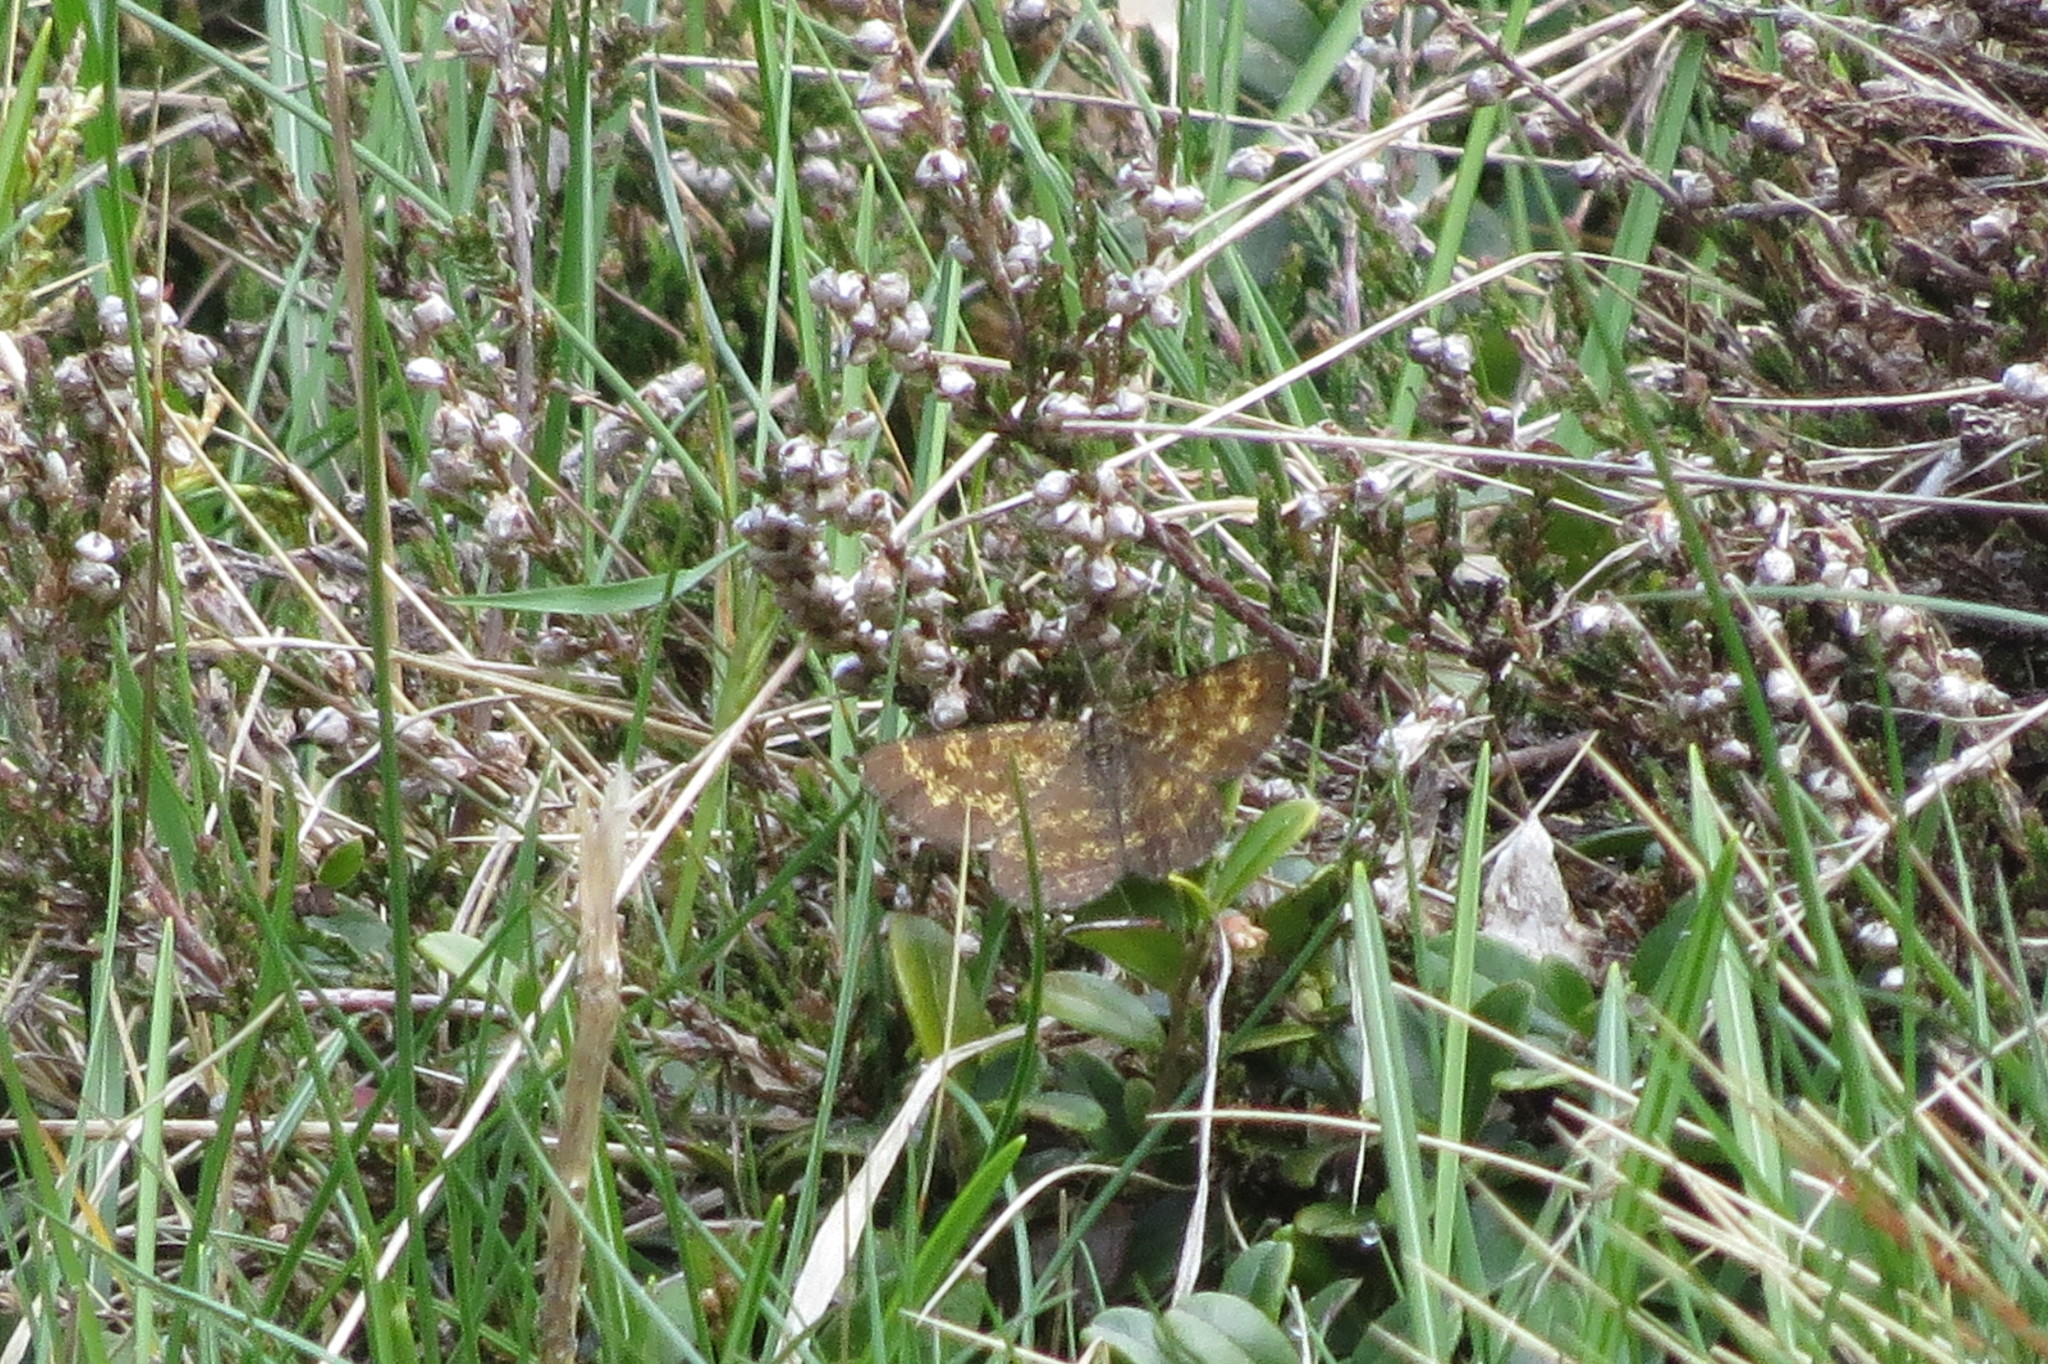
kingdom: Animalia
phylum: Arthropoda
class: Insecta
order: Lepidoptera
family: Geometridae
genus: Ematurga
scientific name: Ematurga atomaria
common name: Common heath
